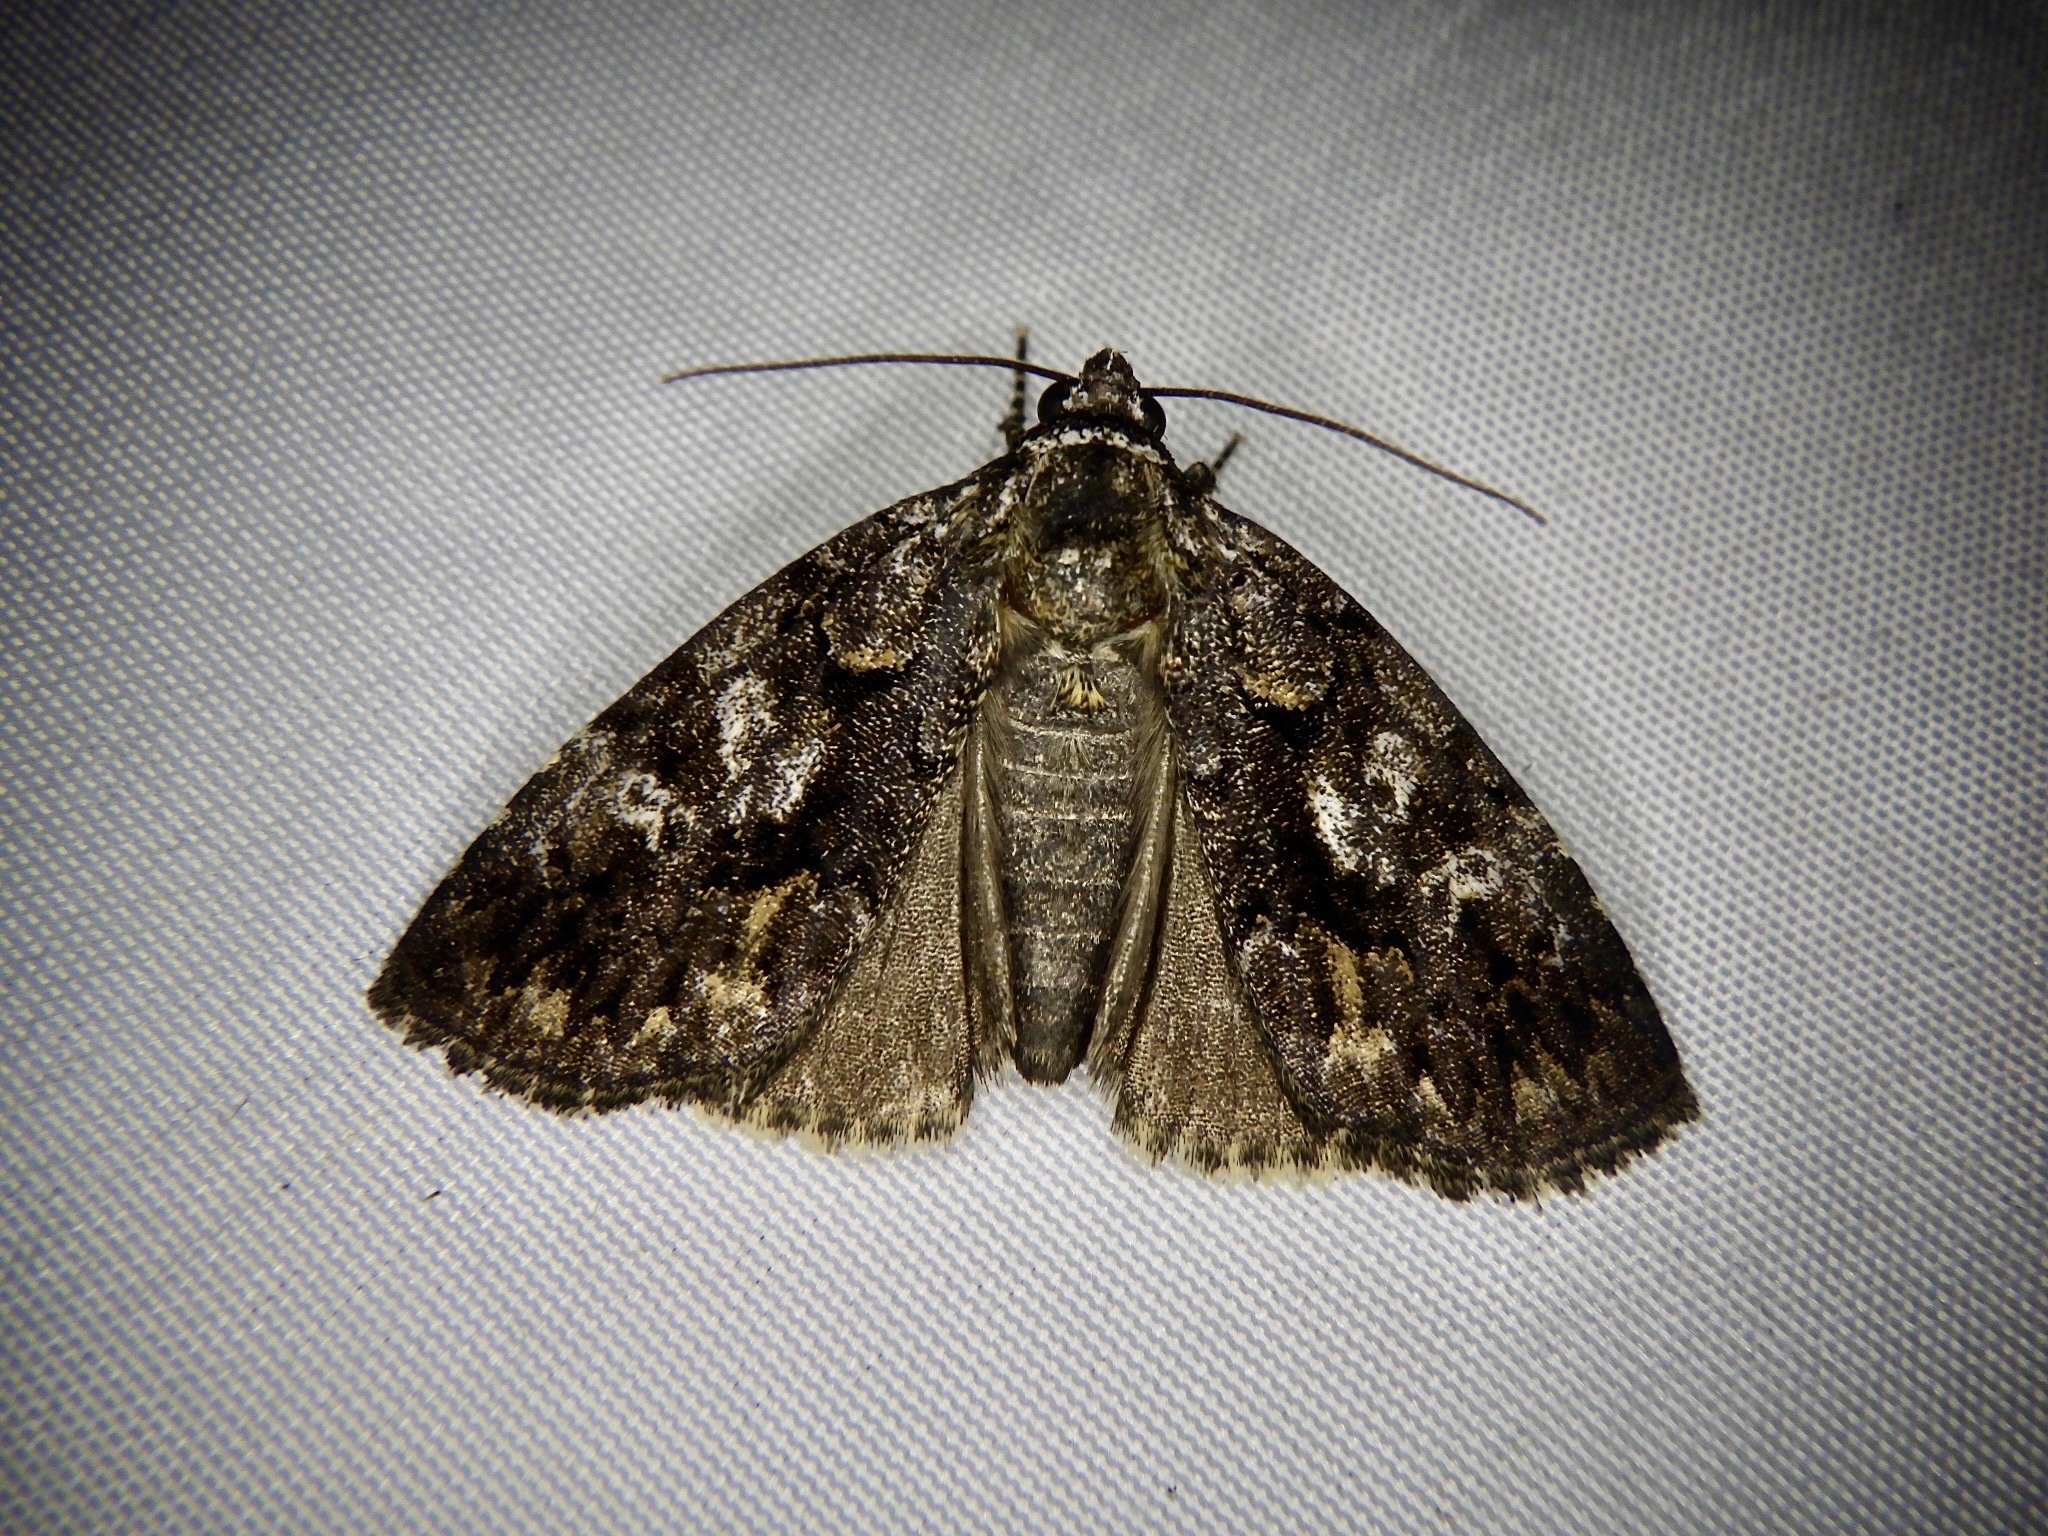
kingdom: Animalia
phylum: Arthropoda
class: Insecta
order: Lepidoptera
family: Noctuidae
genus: Gerbathodes
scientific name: Gerbathodes lichenodes
